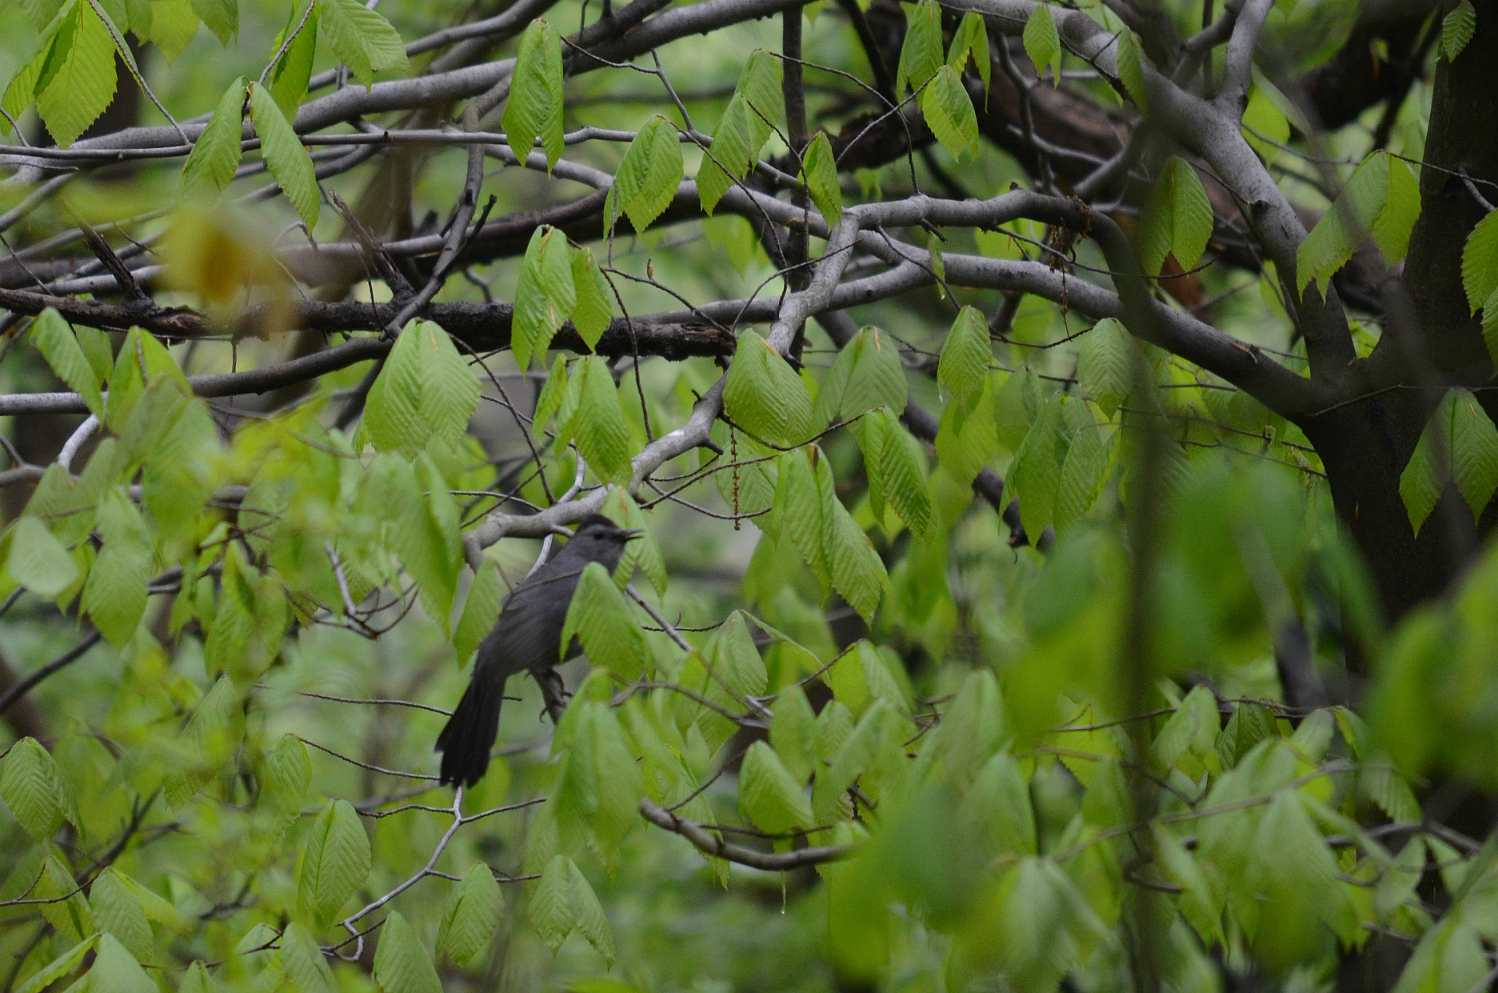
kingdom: Animalia
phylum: Chordata
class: Aves
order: Passeriformes
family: Mimidae
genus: Dumetella
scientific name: Dumetella carolinensis
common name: Gray catbird
